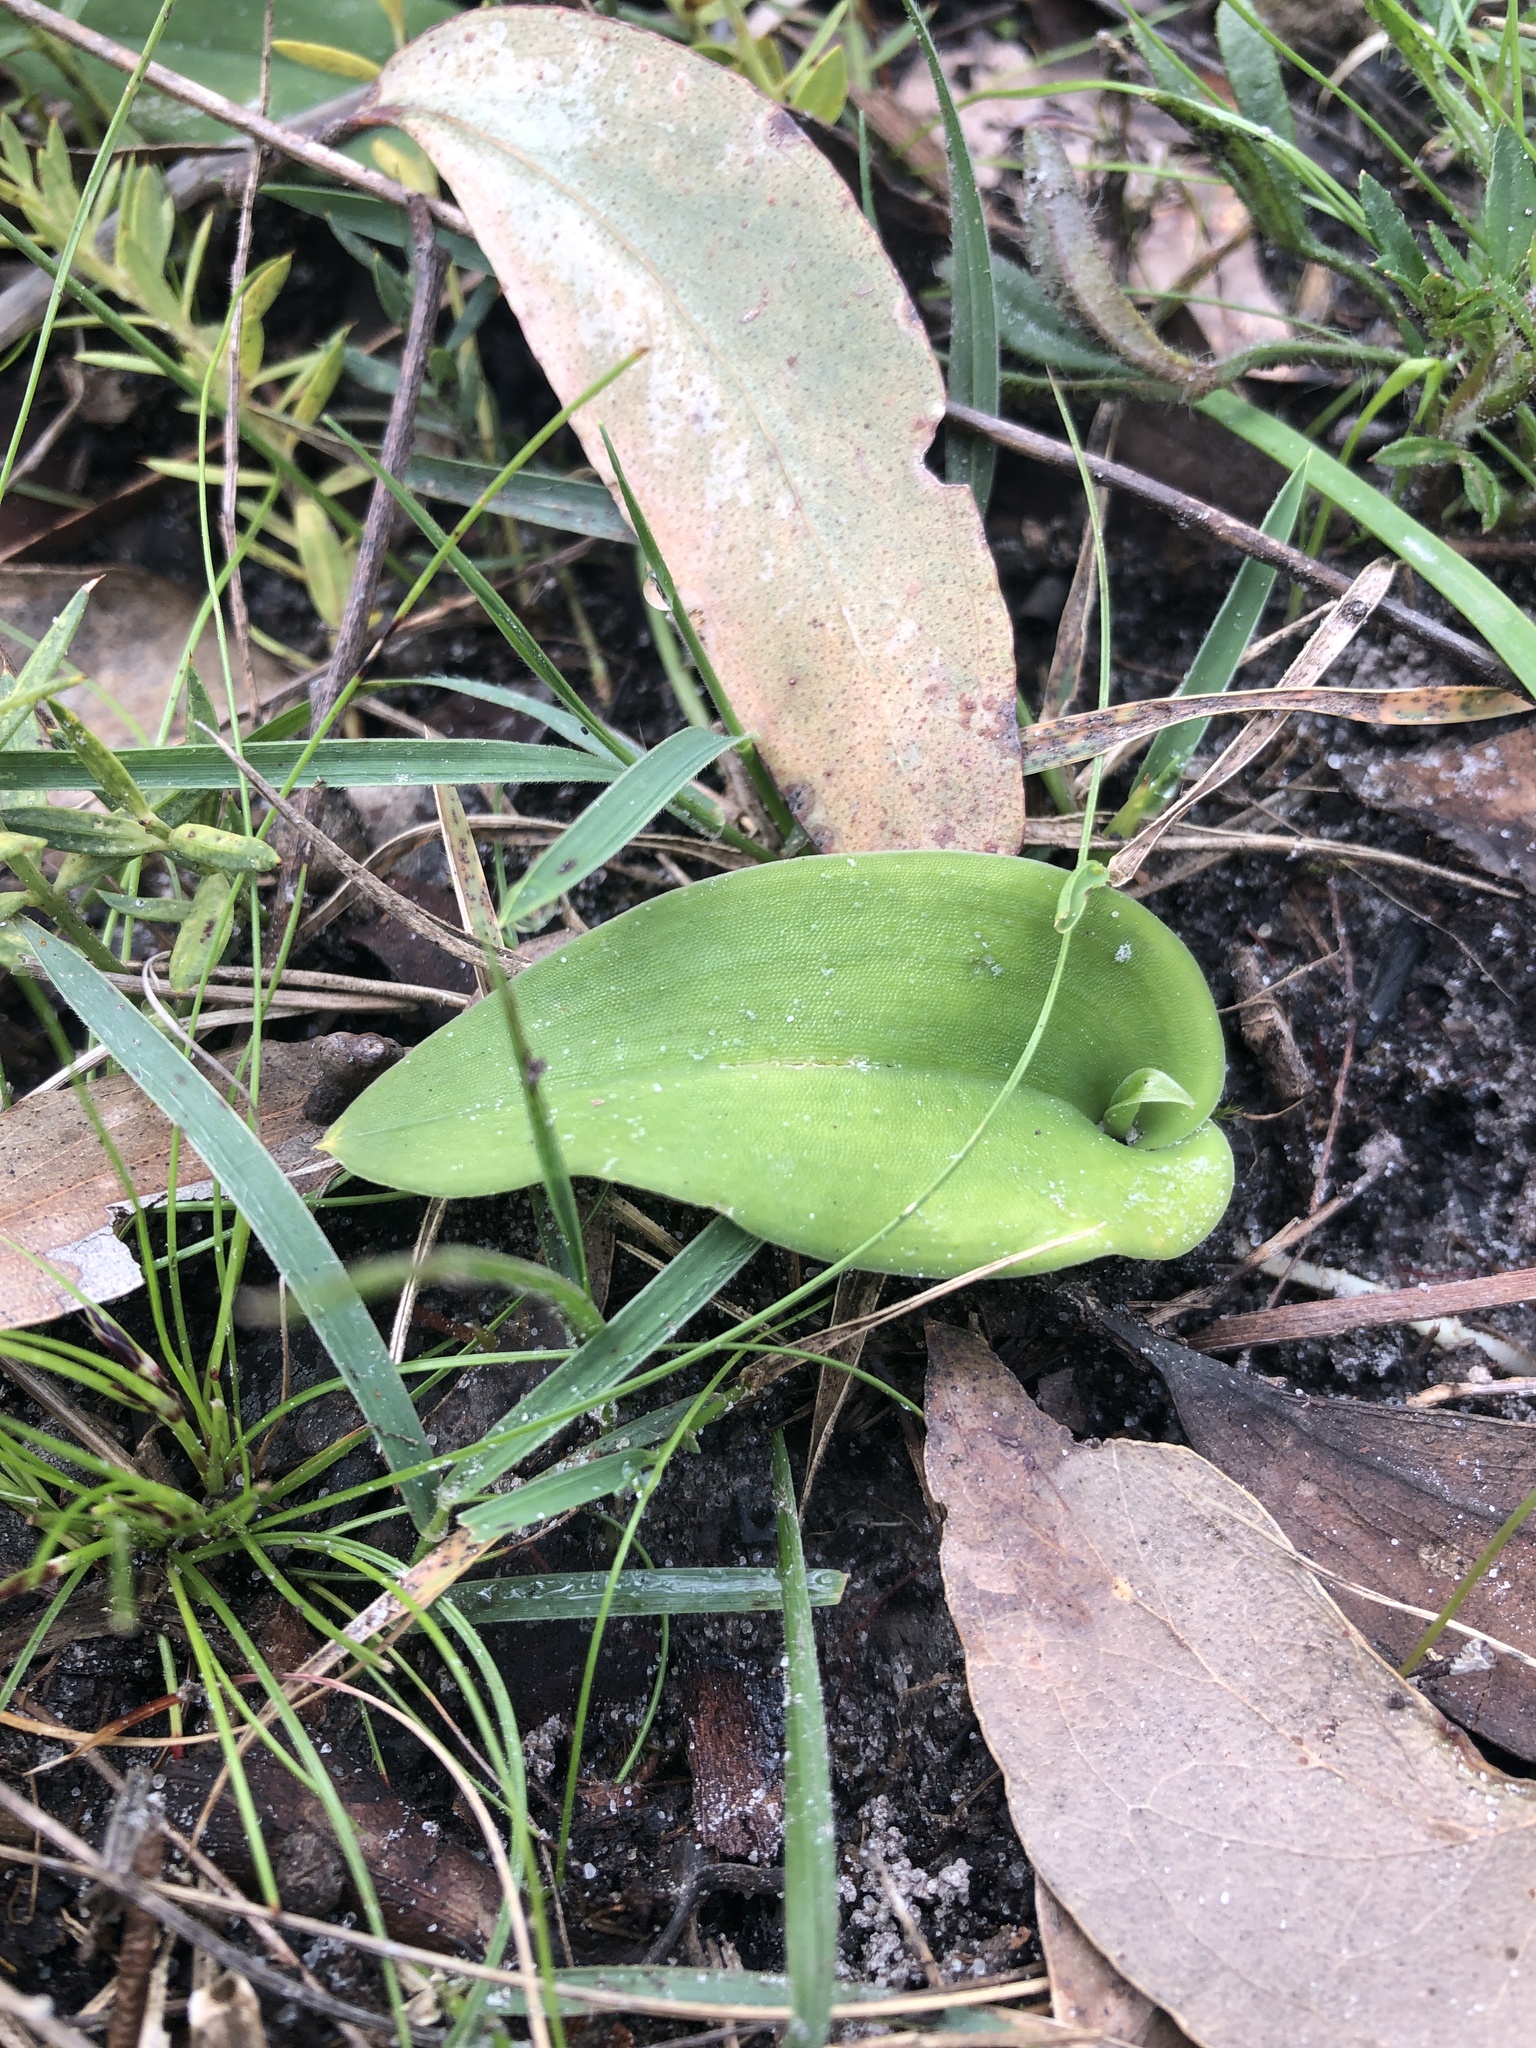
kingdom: Plantae
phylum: Tracheophyta
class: Liliopsida
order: Asparagales
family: Orchidaceae
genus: Leptoceras
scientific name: Leptoceras menziesii
